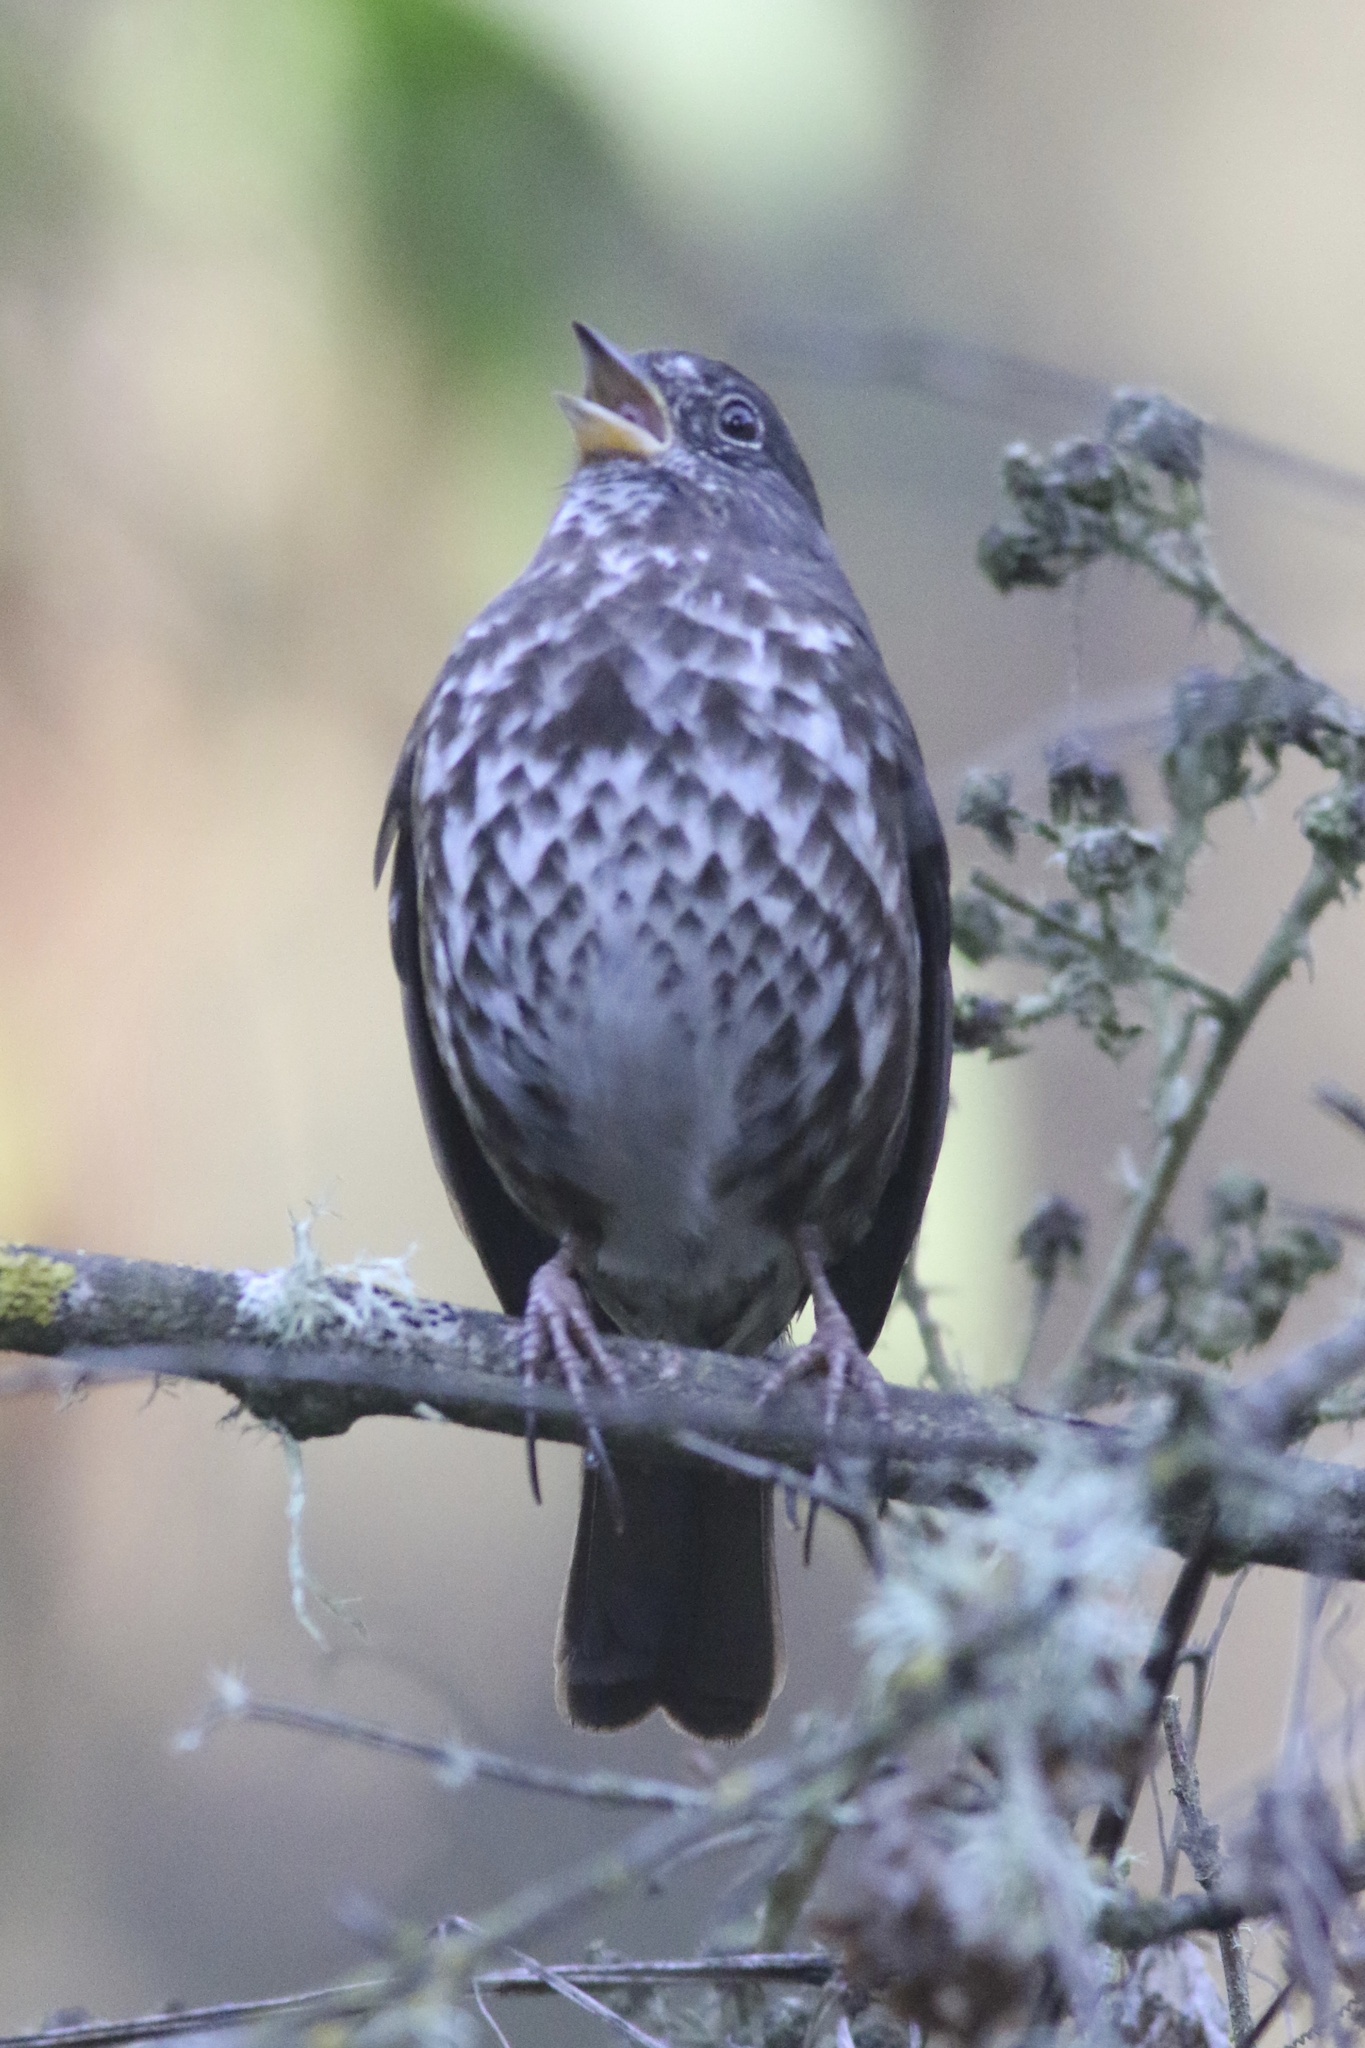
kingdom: Animalia
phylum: Chordata
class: Aves
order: Passeriformes
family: Passerellidae
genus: Passerella
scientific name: Passerella iliaca
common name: Fox sparrow
